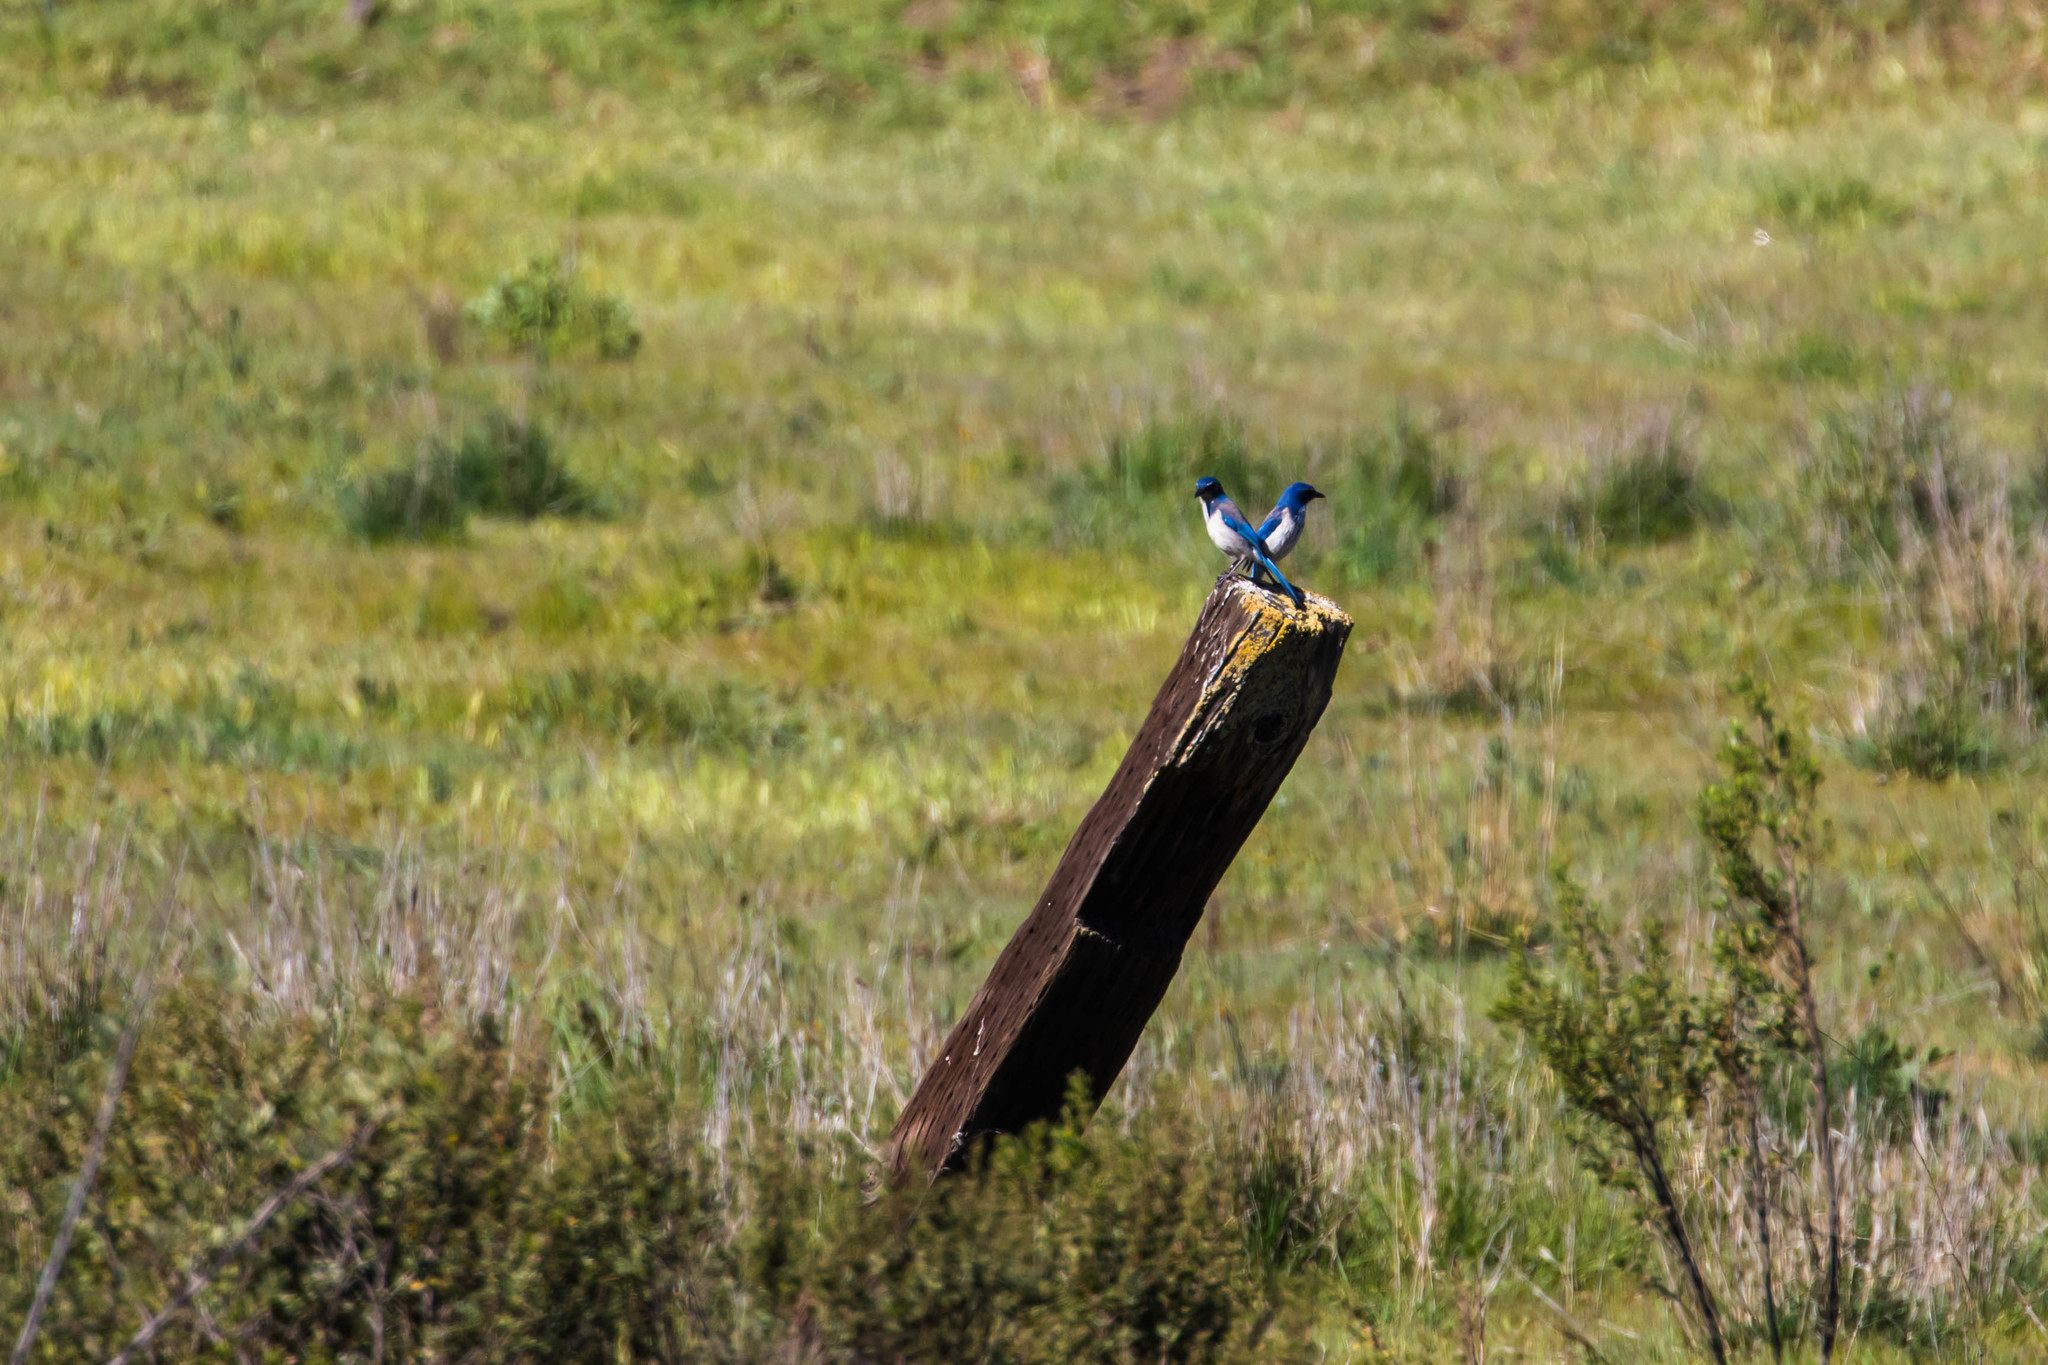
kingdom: Animalia
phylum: Chordata
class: Aves
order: Passeriformes
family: Corvidae
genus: Aphelocoma
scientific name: Aphelocoma californica
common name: California scrub-jay
